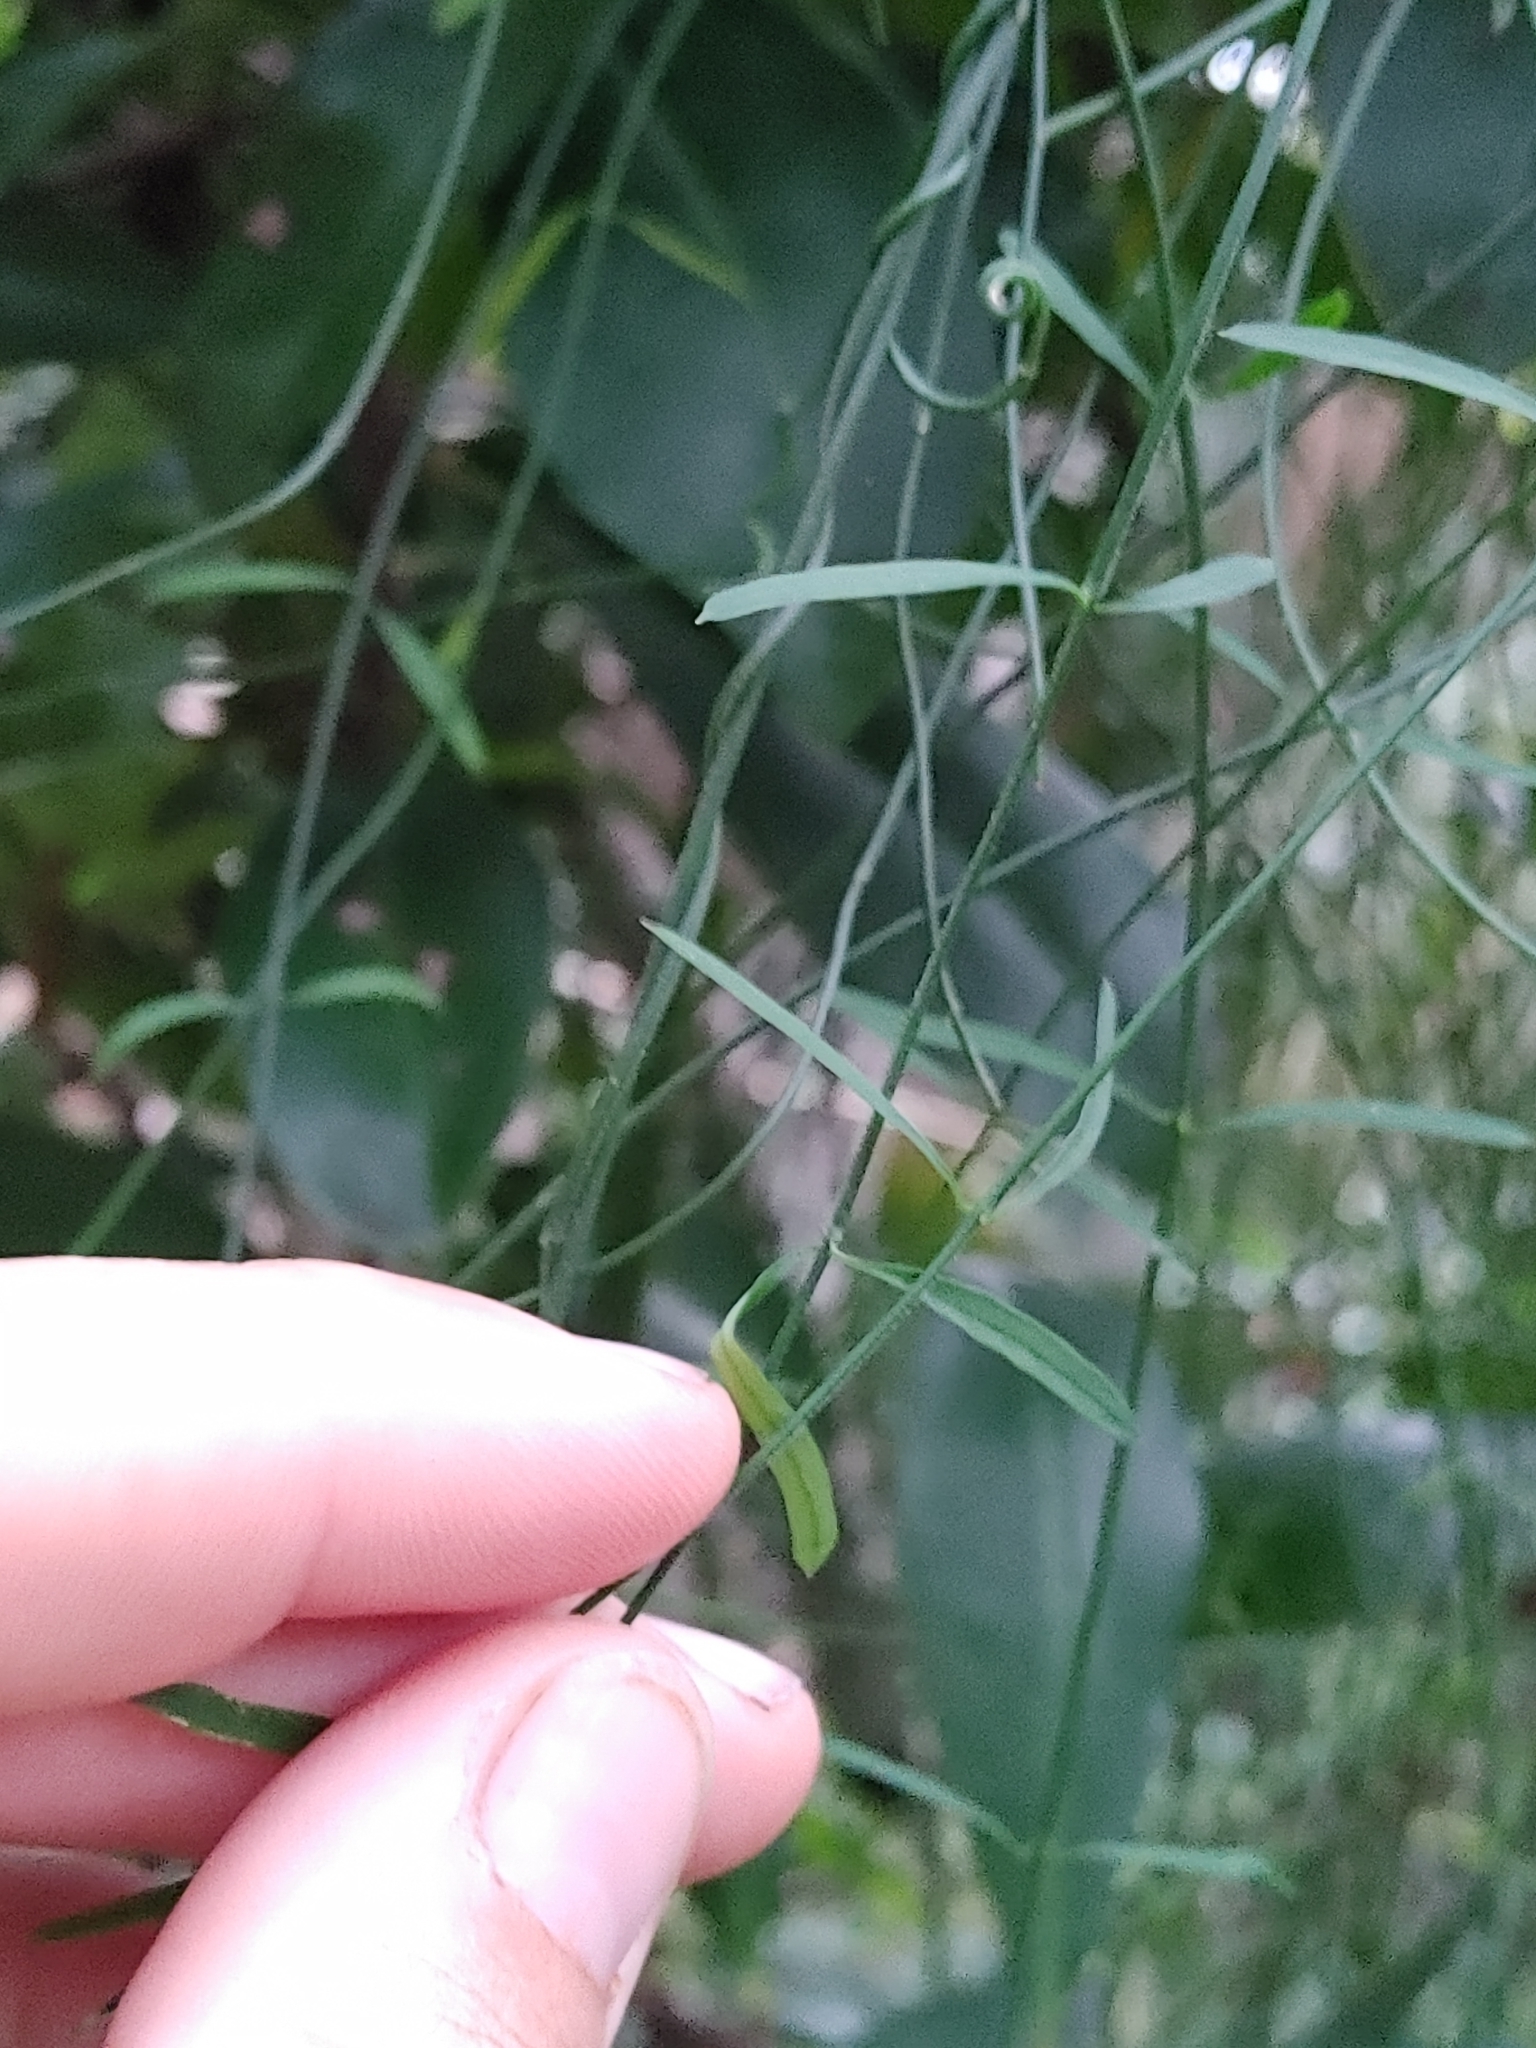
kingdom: Plantae
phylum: Tracheophyta
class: Magnoliopsida
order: Gentianales
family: Apocynaceae
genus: Orthosia
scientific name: Orthosia scoparia
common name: Leafless swallow-wort
